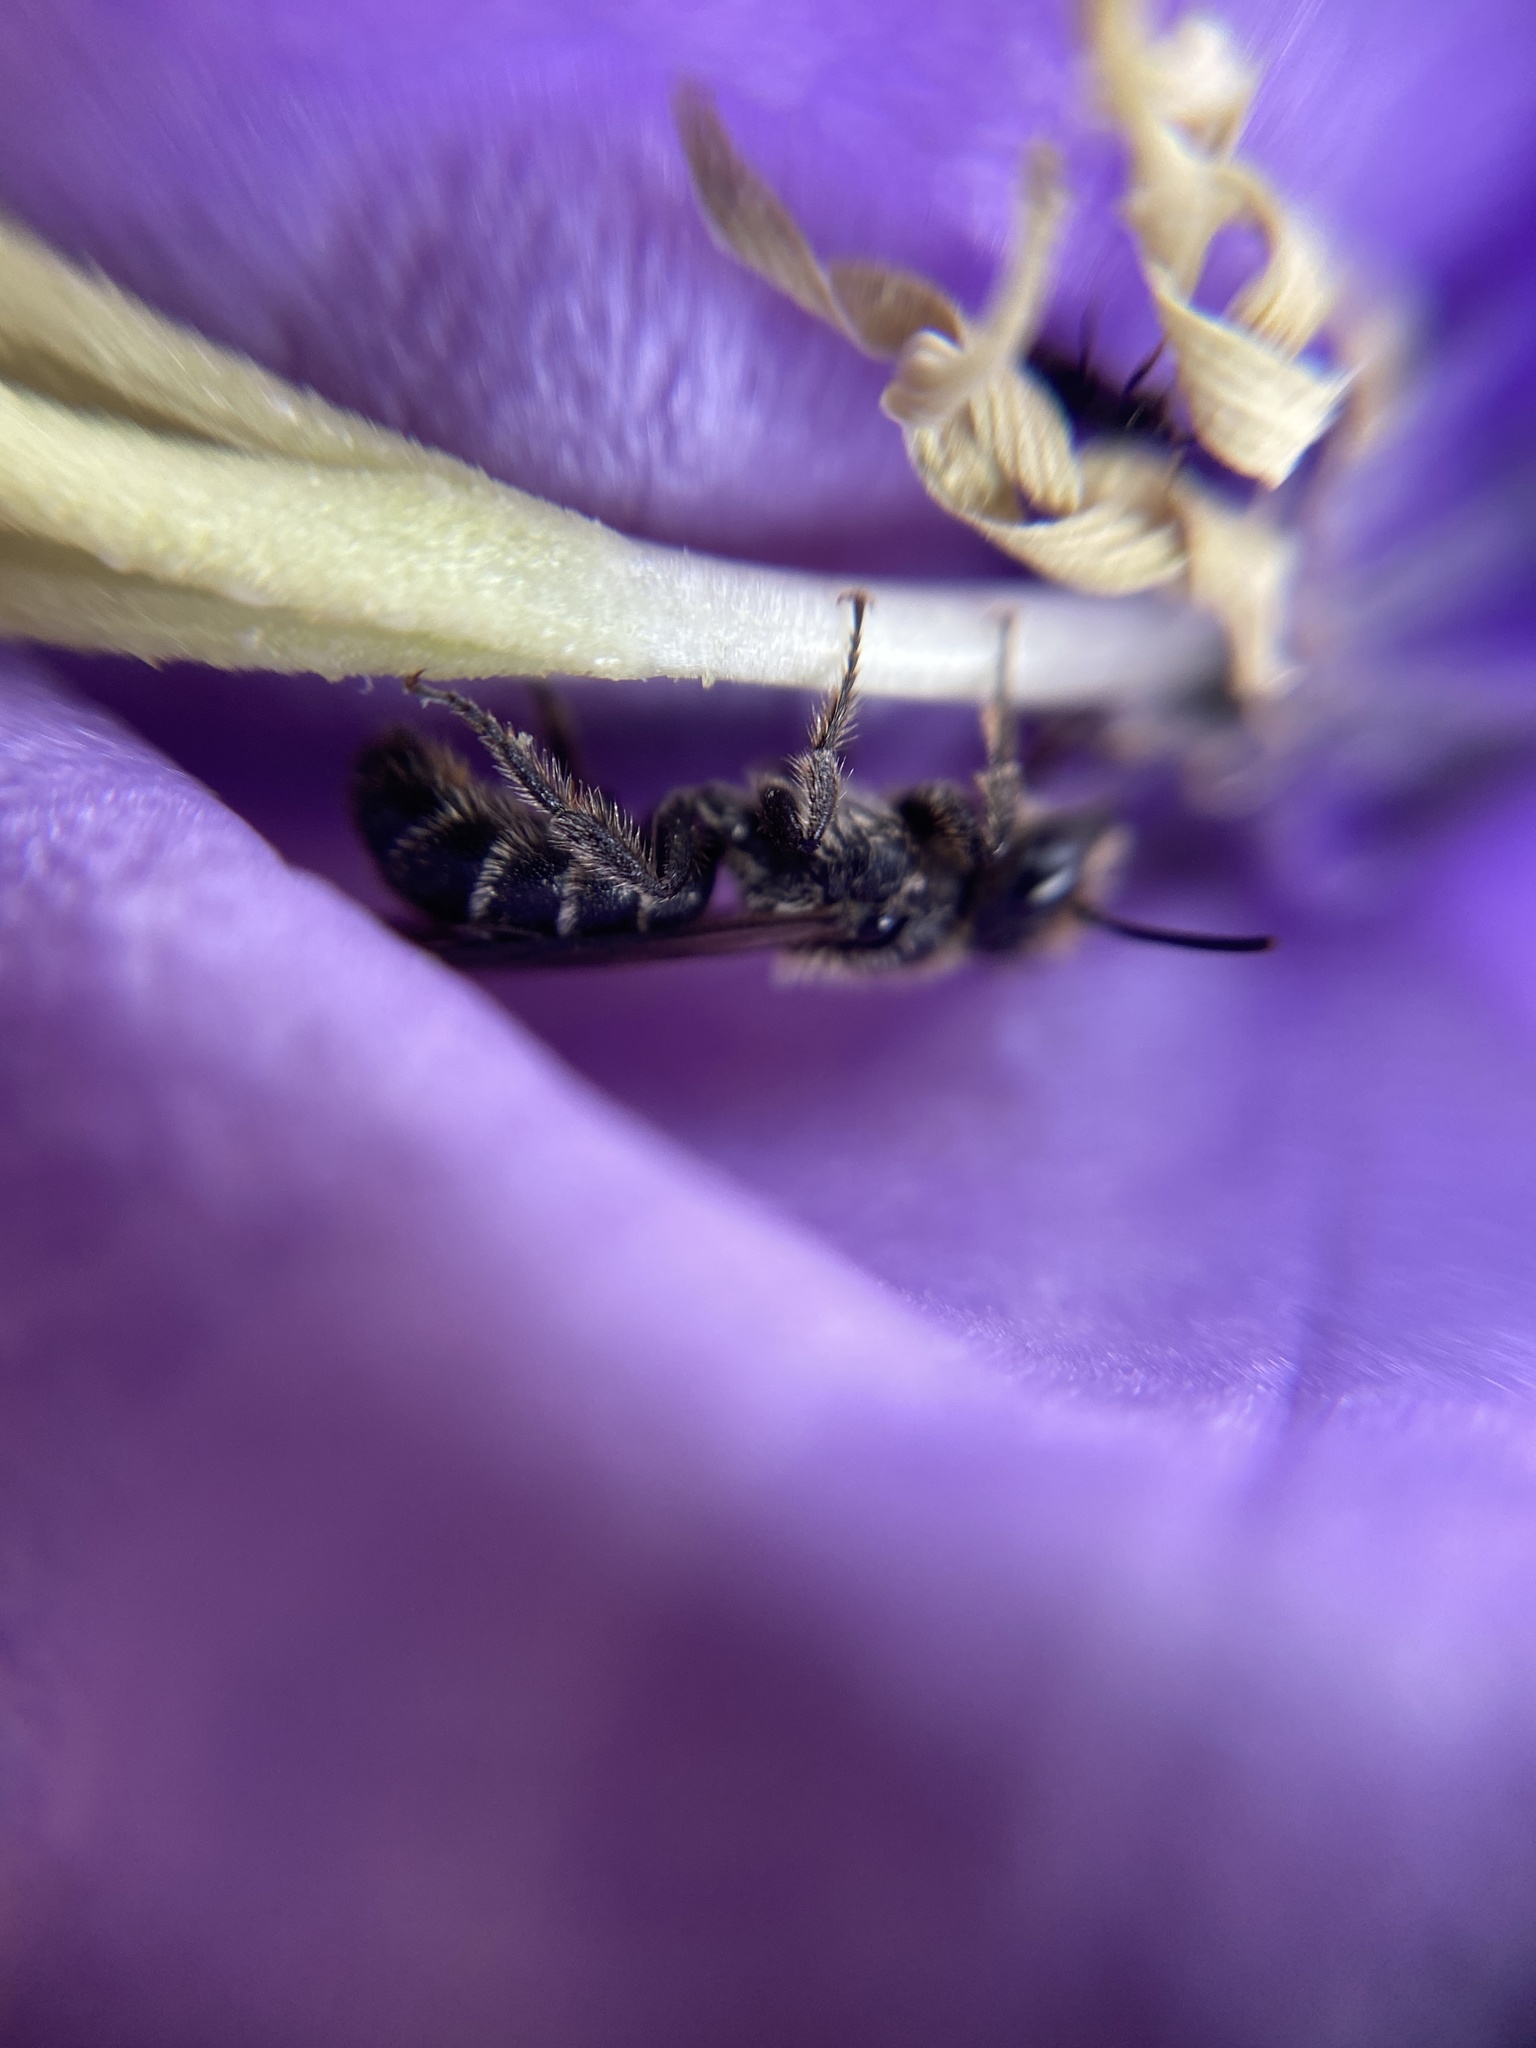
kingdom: Animalia
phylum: Arthropoda
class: Insecta
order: Hymenoptera
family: Megachilidae
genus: Chelostoma
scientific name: Chelostoma rapunculi
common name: Rampion scissor bee
